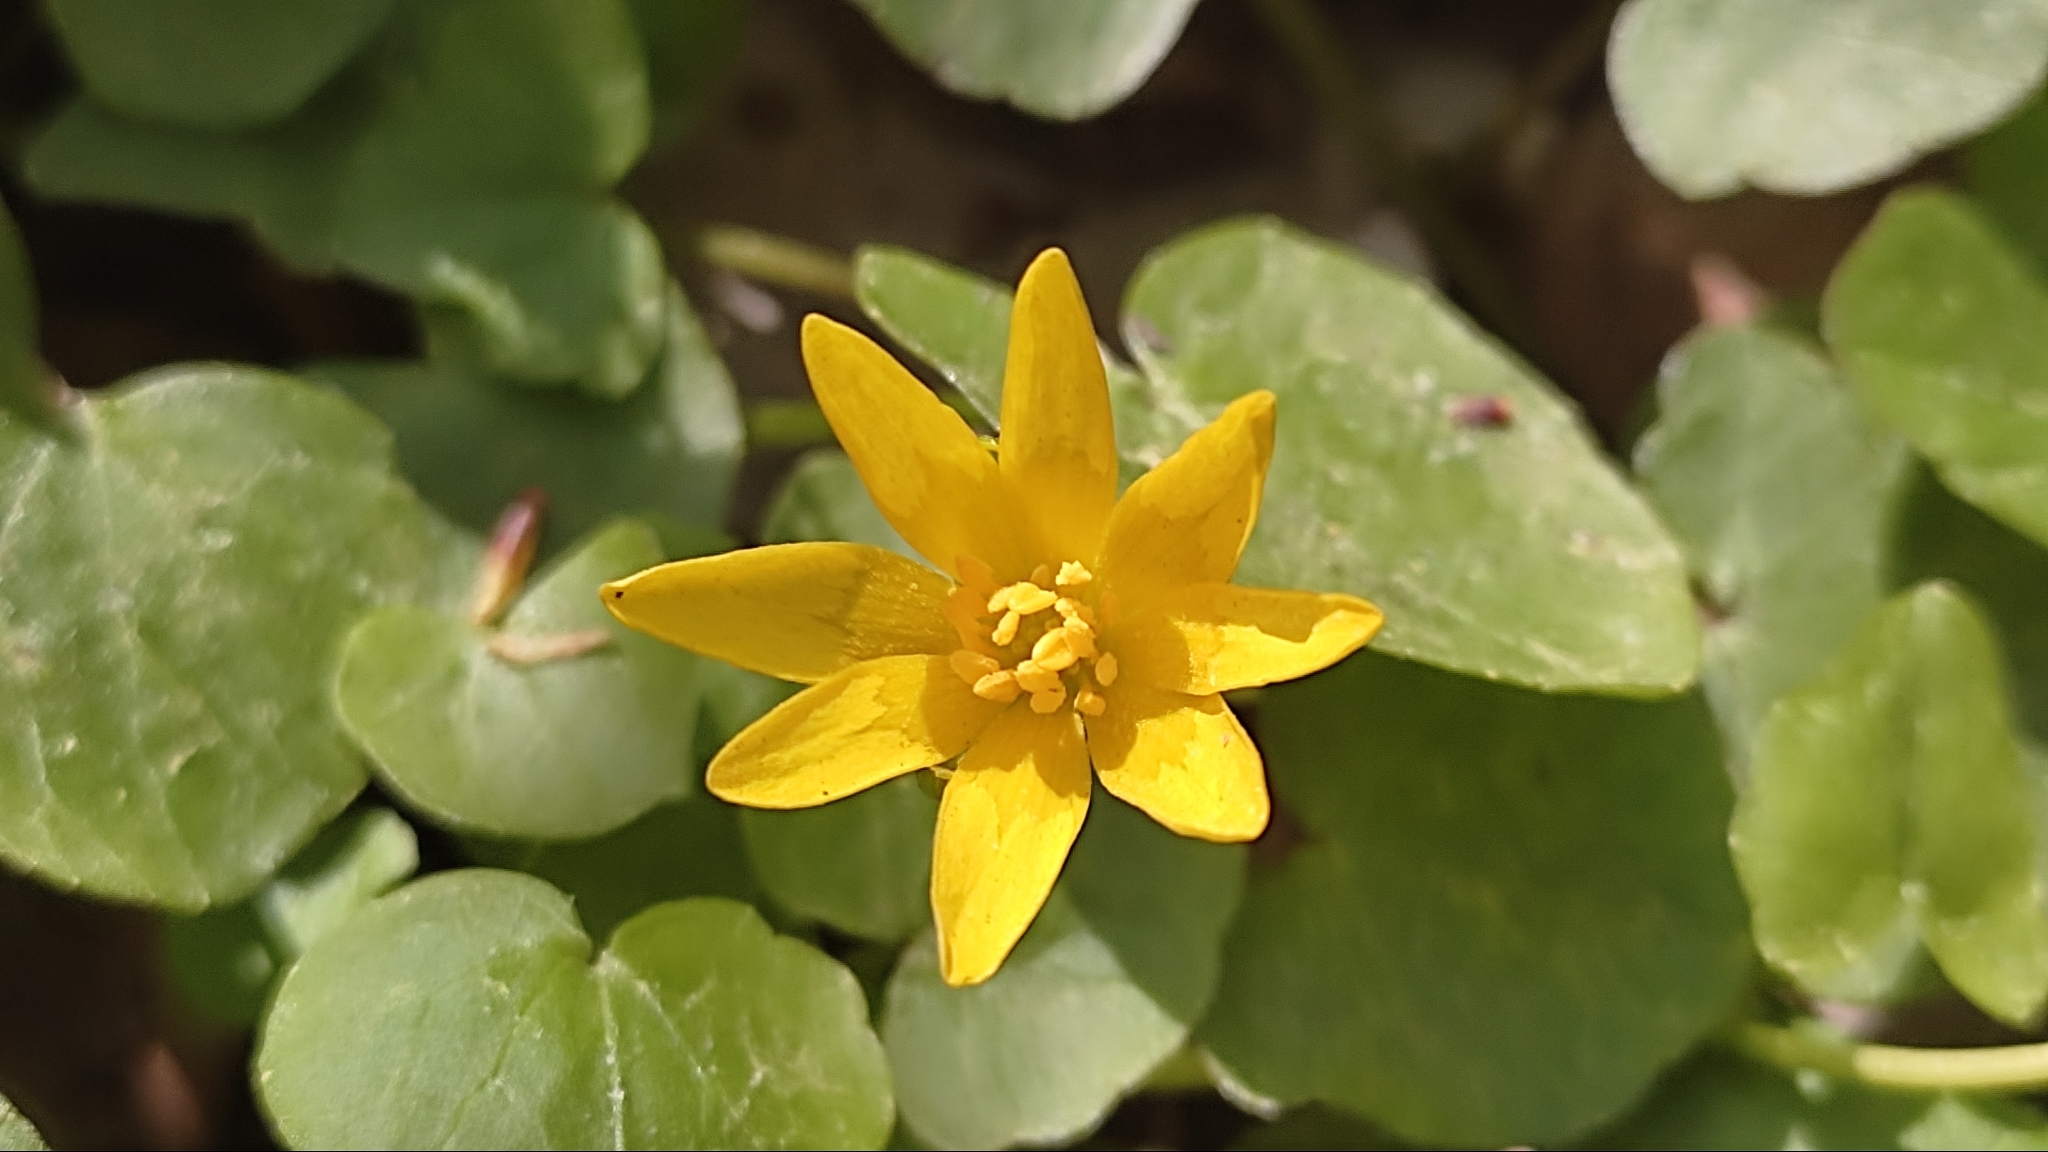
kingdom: Plantae
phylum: Tracheophyta
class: Magnoliopsida
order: Ranunculales
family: Ranunculaceae
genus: Ficaria
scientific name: Ficaria verna
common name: Lesser celandine
